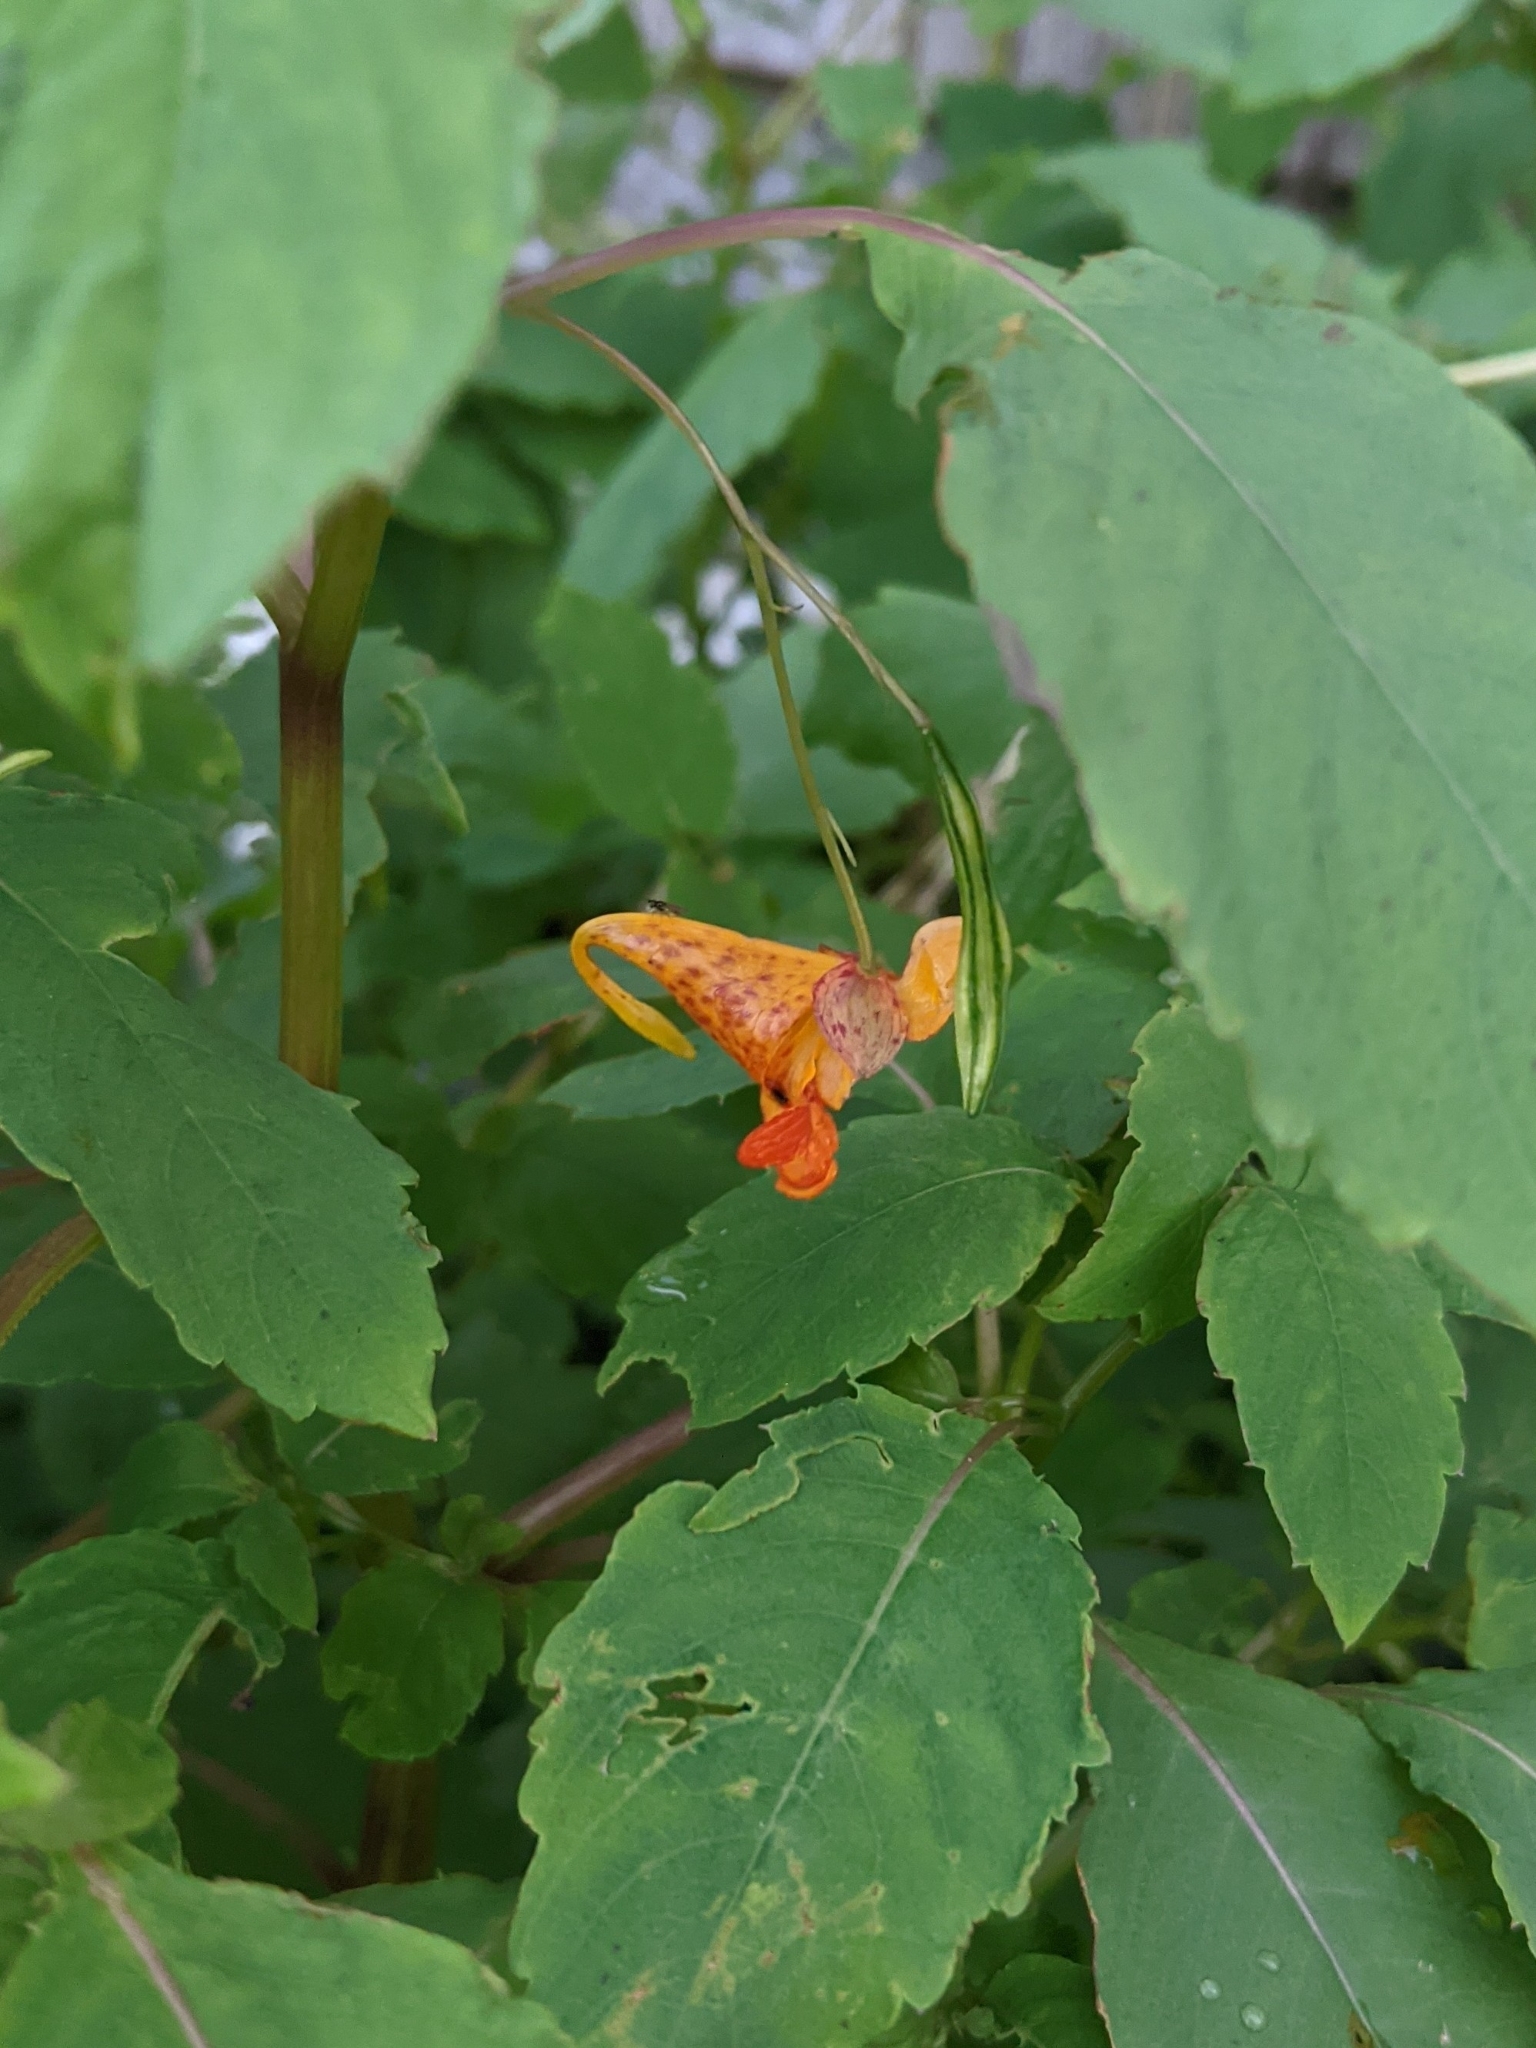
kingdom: Plantae
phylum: Tracheophyta
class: Magnoliopsida
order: Ericales
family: Balsaminaceae
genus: Impatiens
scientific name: Impatiens capensis
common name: Orange balsam
